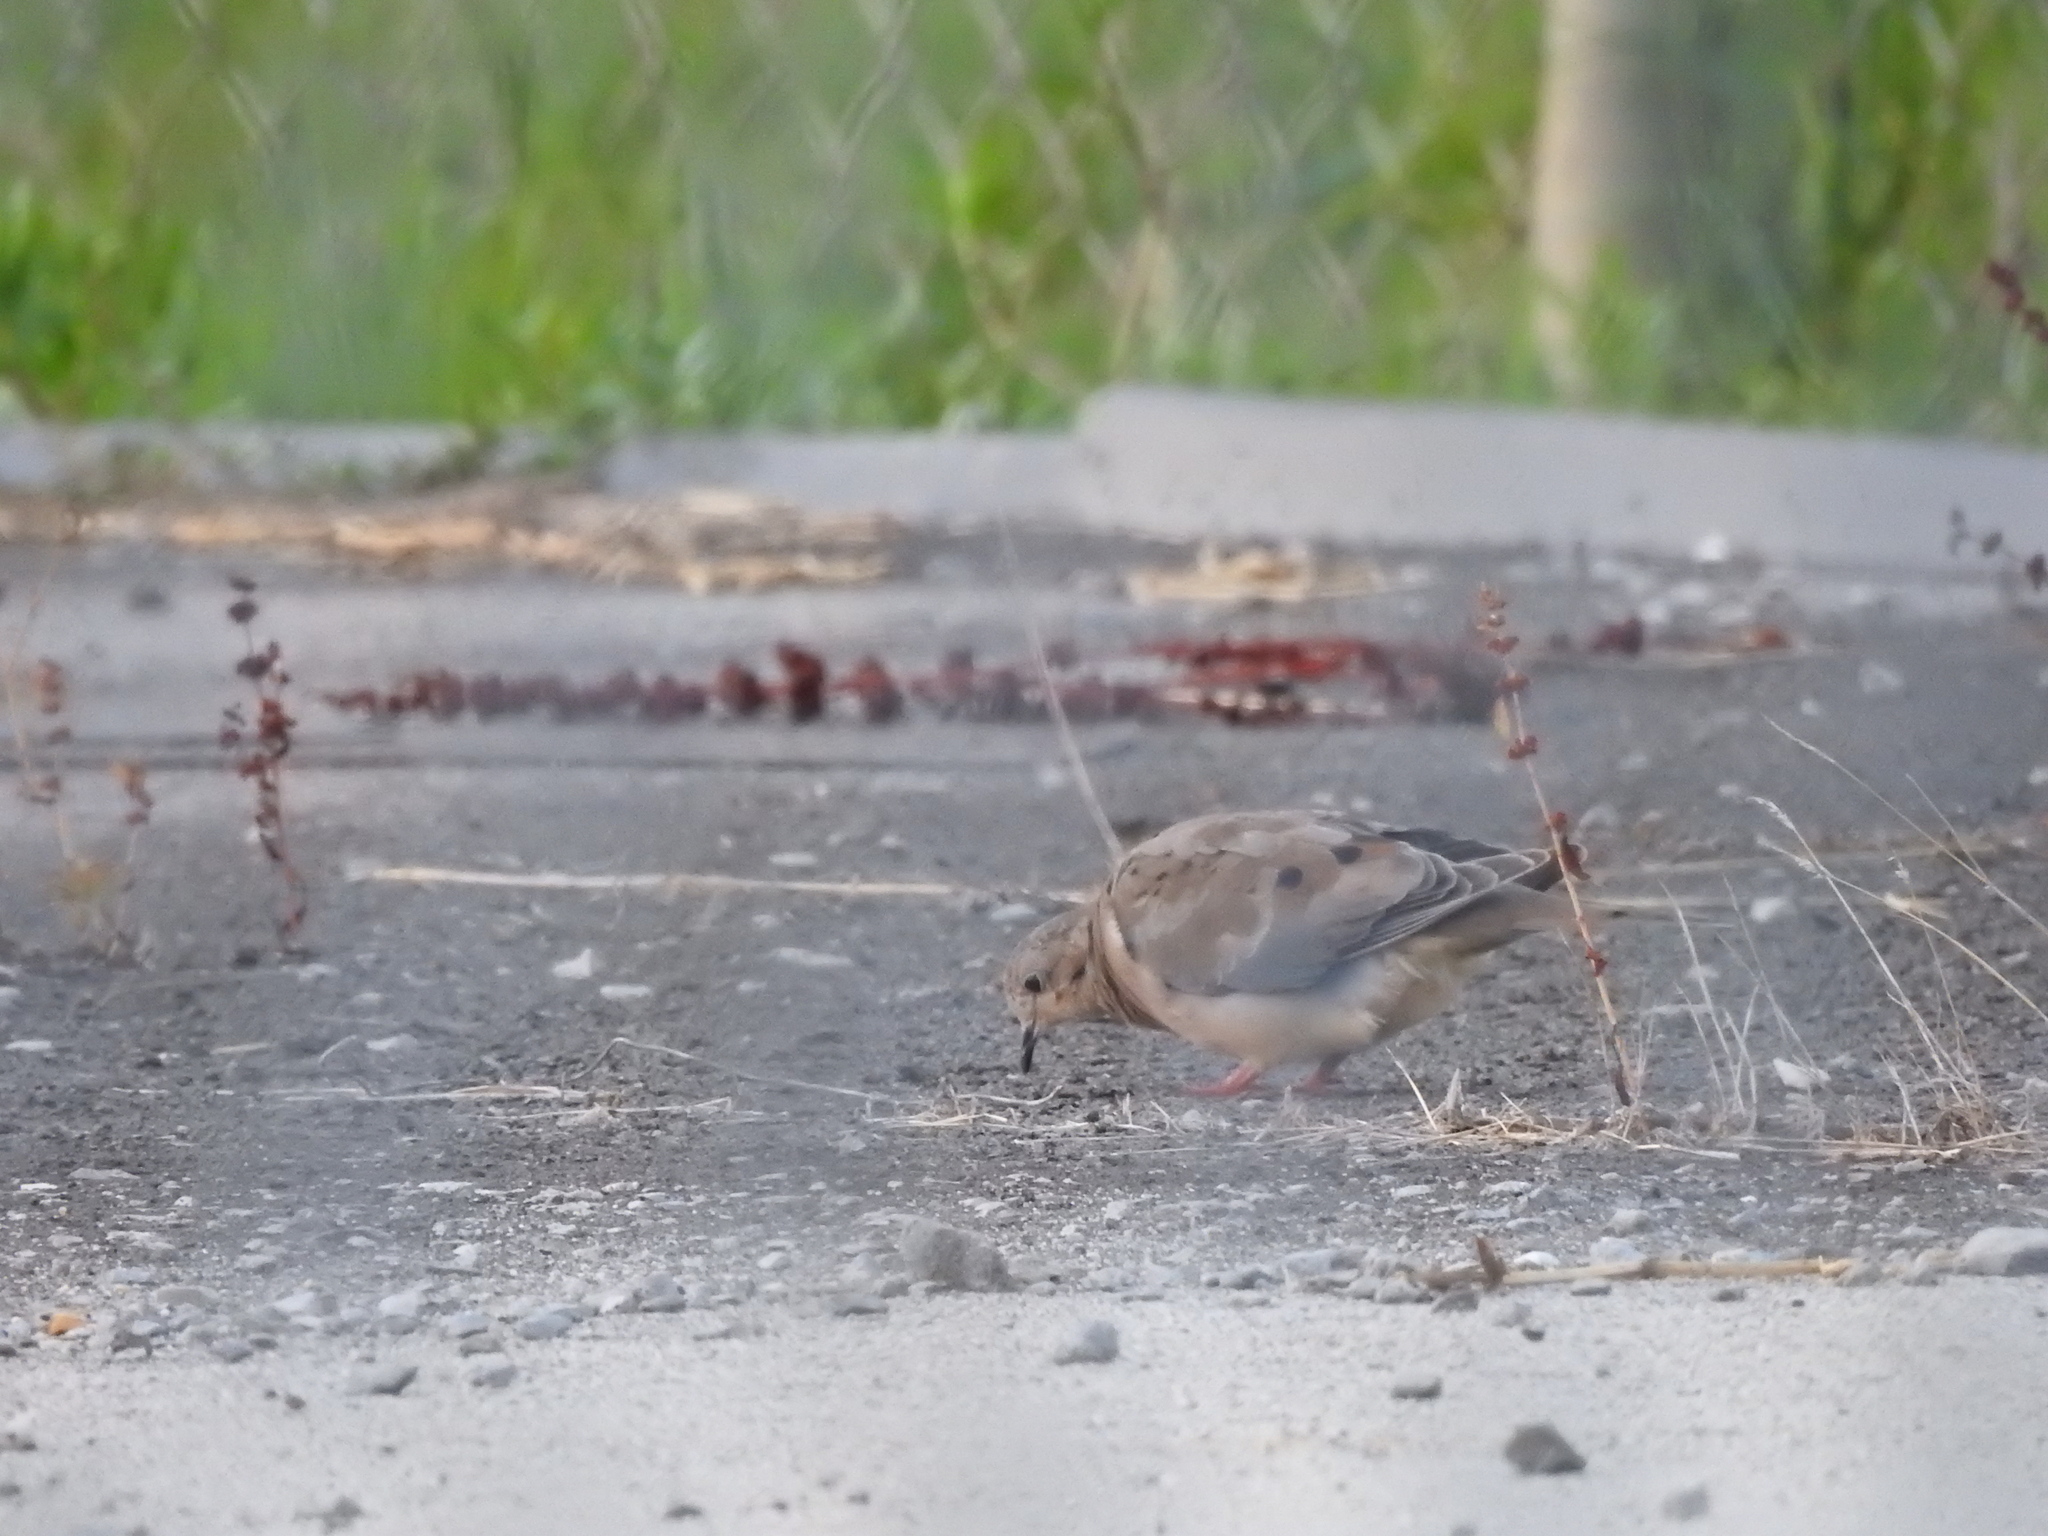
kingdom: Animalia
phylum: Chordata
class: Aves
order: Columbiformes
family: Columbidae
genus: Zenaida
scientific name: Zenaida macroura
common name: Mourning dove
